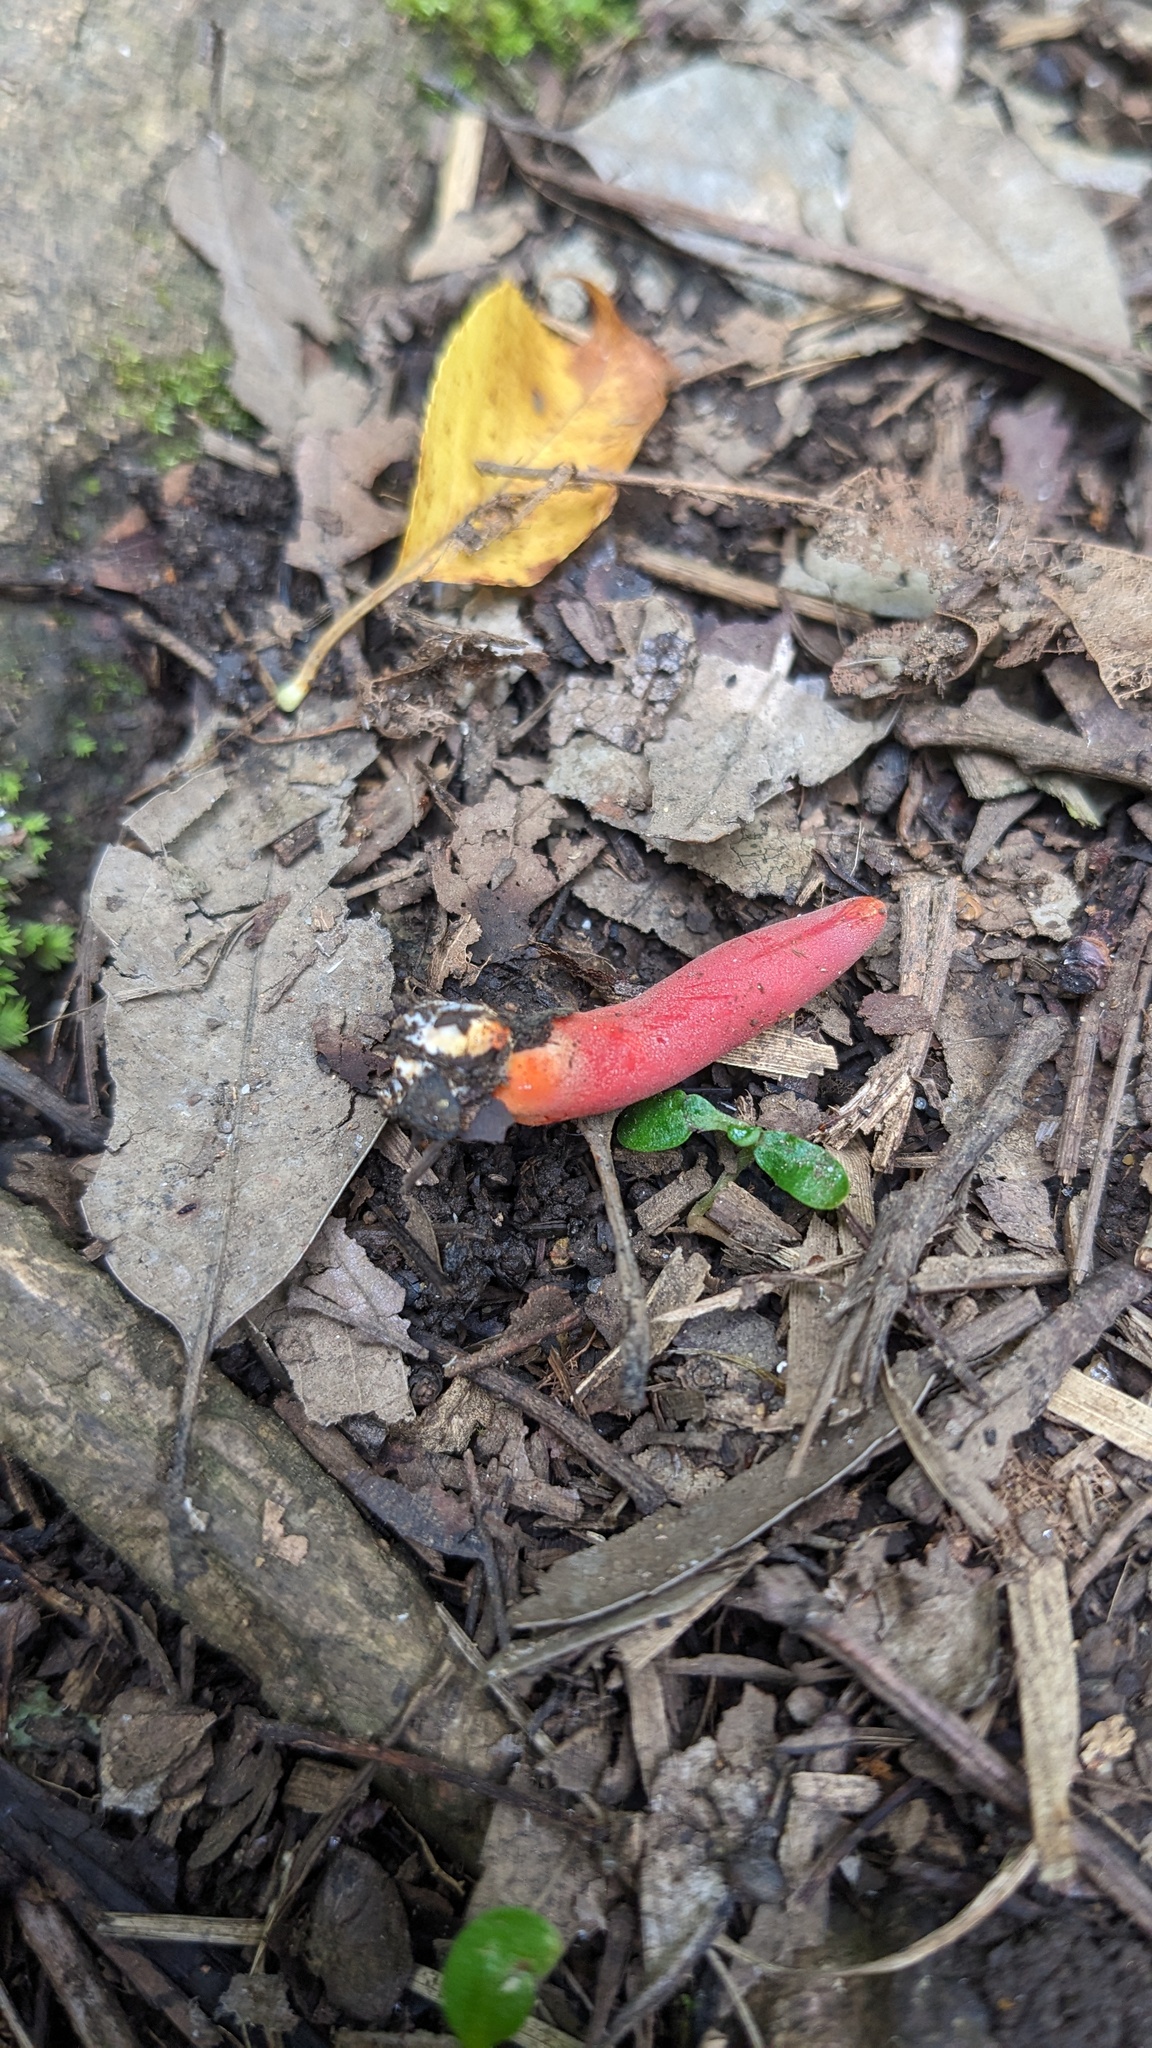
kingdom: Fungi
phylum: Ascomycota
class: Sordariomycetes
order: Hypocreales
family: Hypocreaceae
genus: Trichoderma
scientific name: Trichoderma cornu-damae
